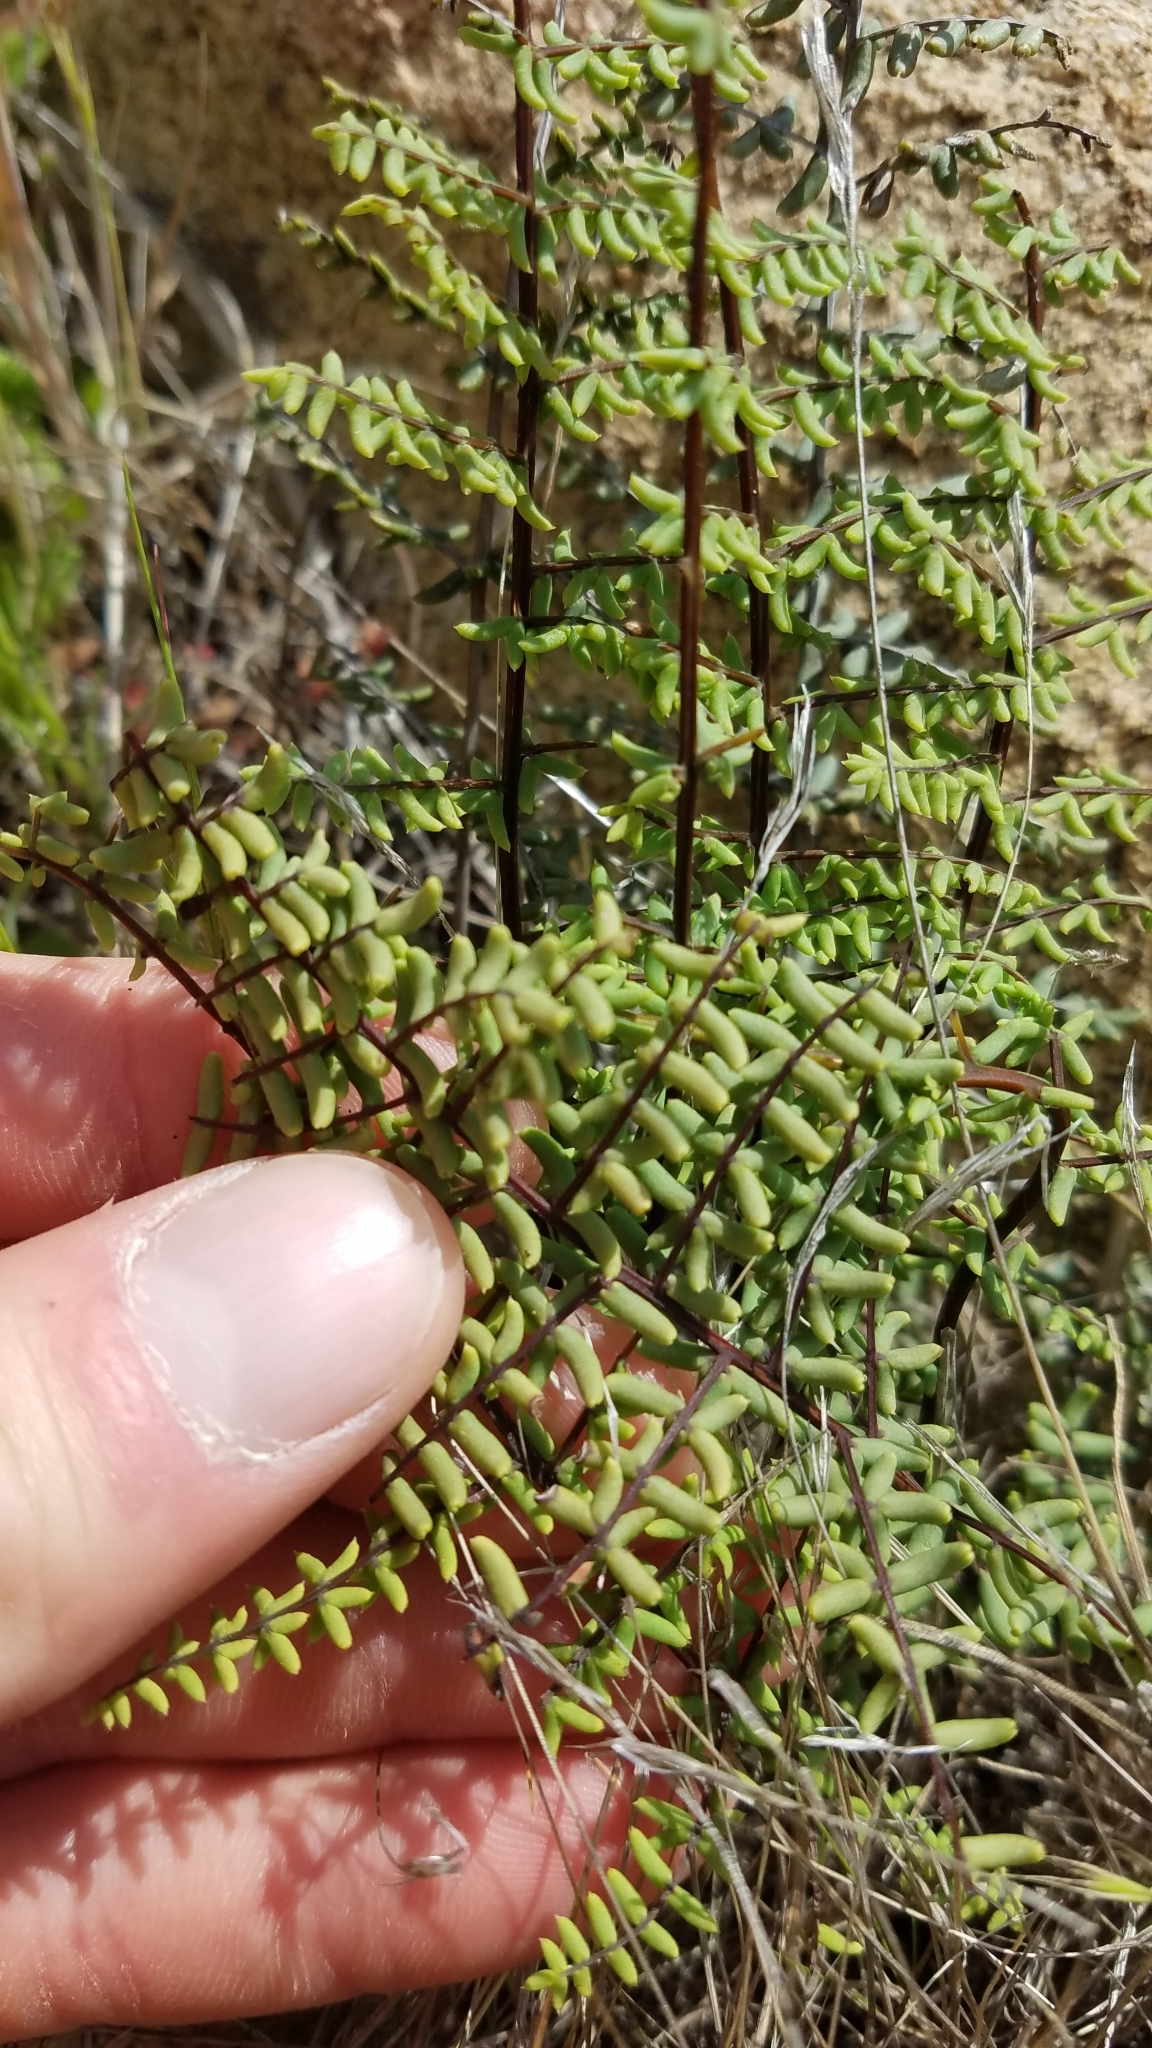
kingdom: Plantae
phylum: Tracheophyta
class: Polypodiopsida
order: Polypodiales
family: Pteridaceae
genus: Pellaea
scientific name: Pellaea mucronata
